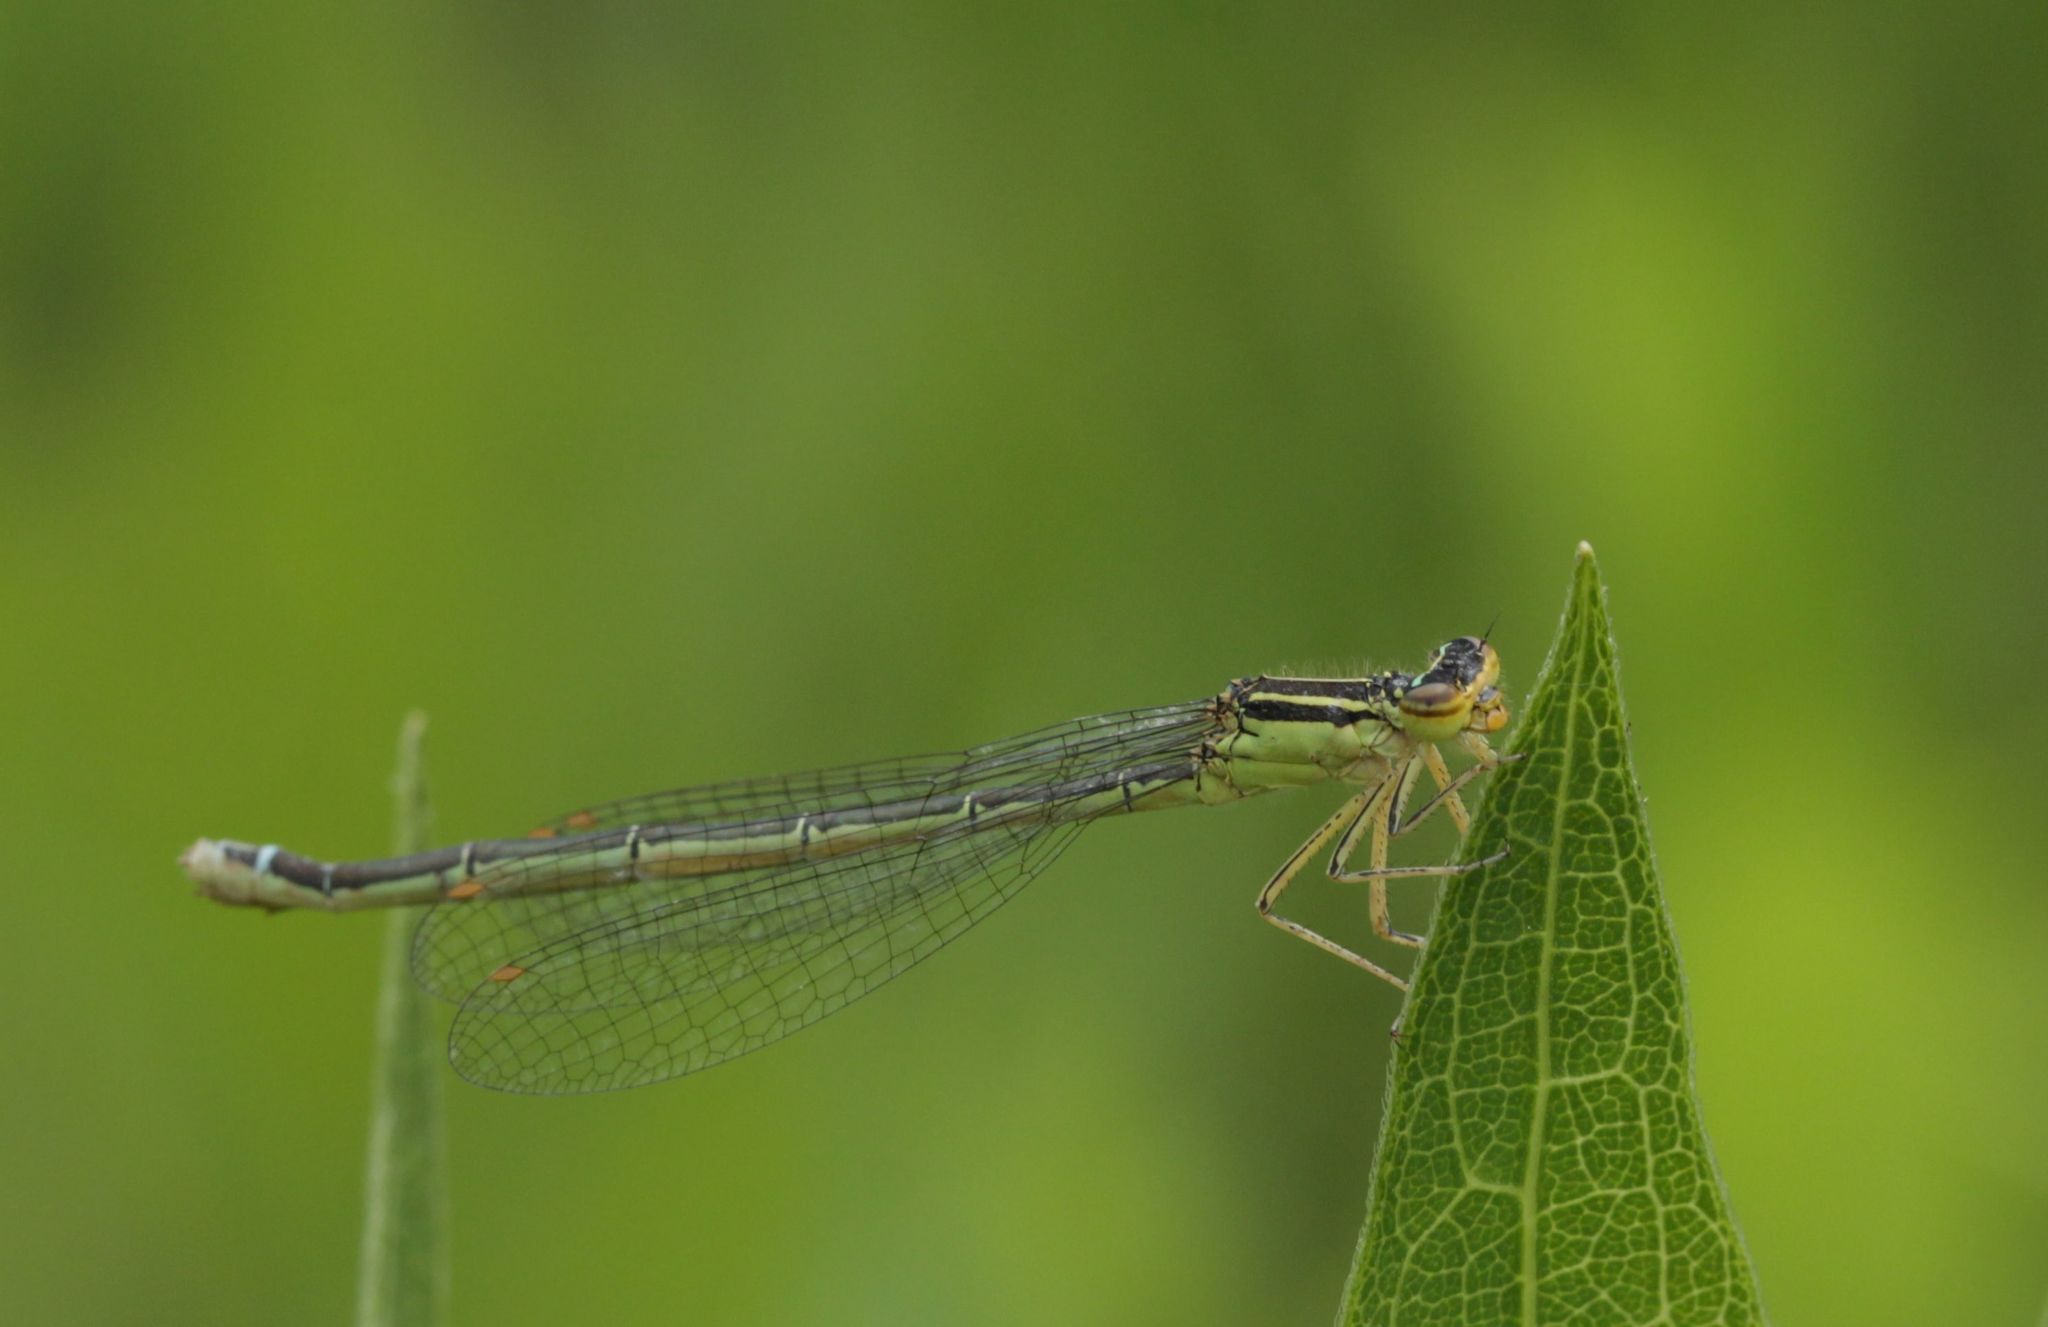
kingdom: Animalia
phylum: Arthropoda
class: Insecta
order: Odonata
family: Coenagrionidae
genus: Enallagma
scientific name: Enallagma antennatum
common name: Rainbow bluet
